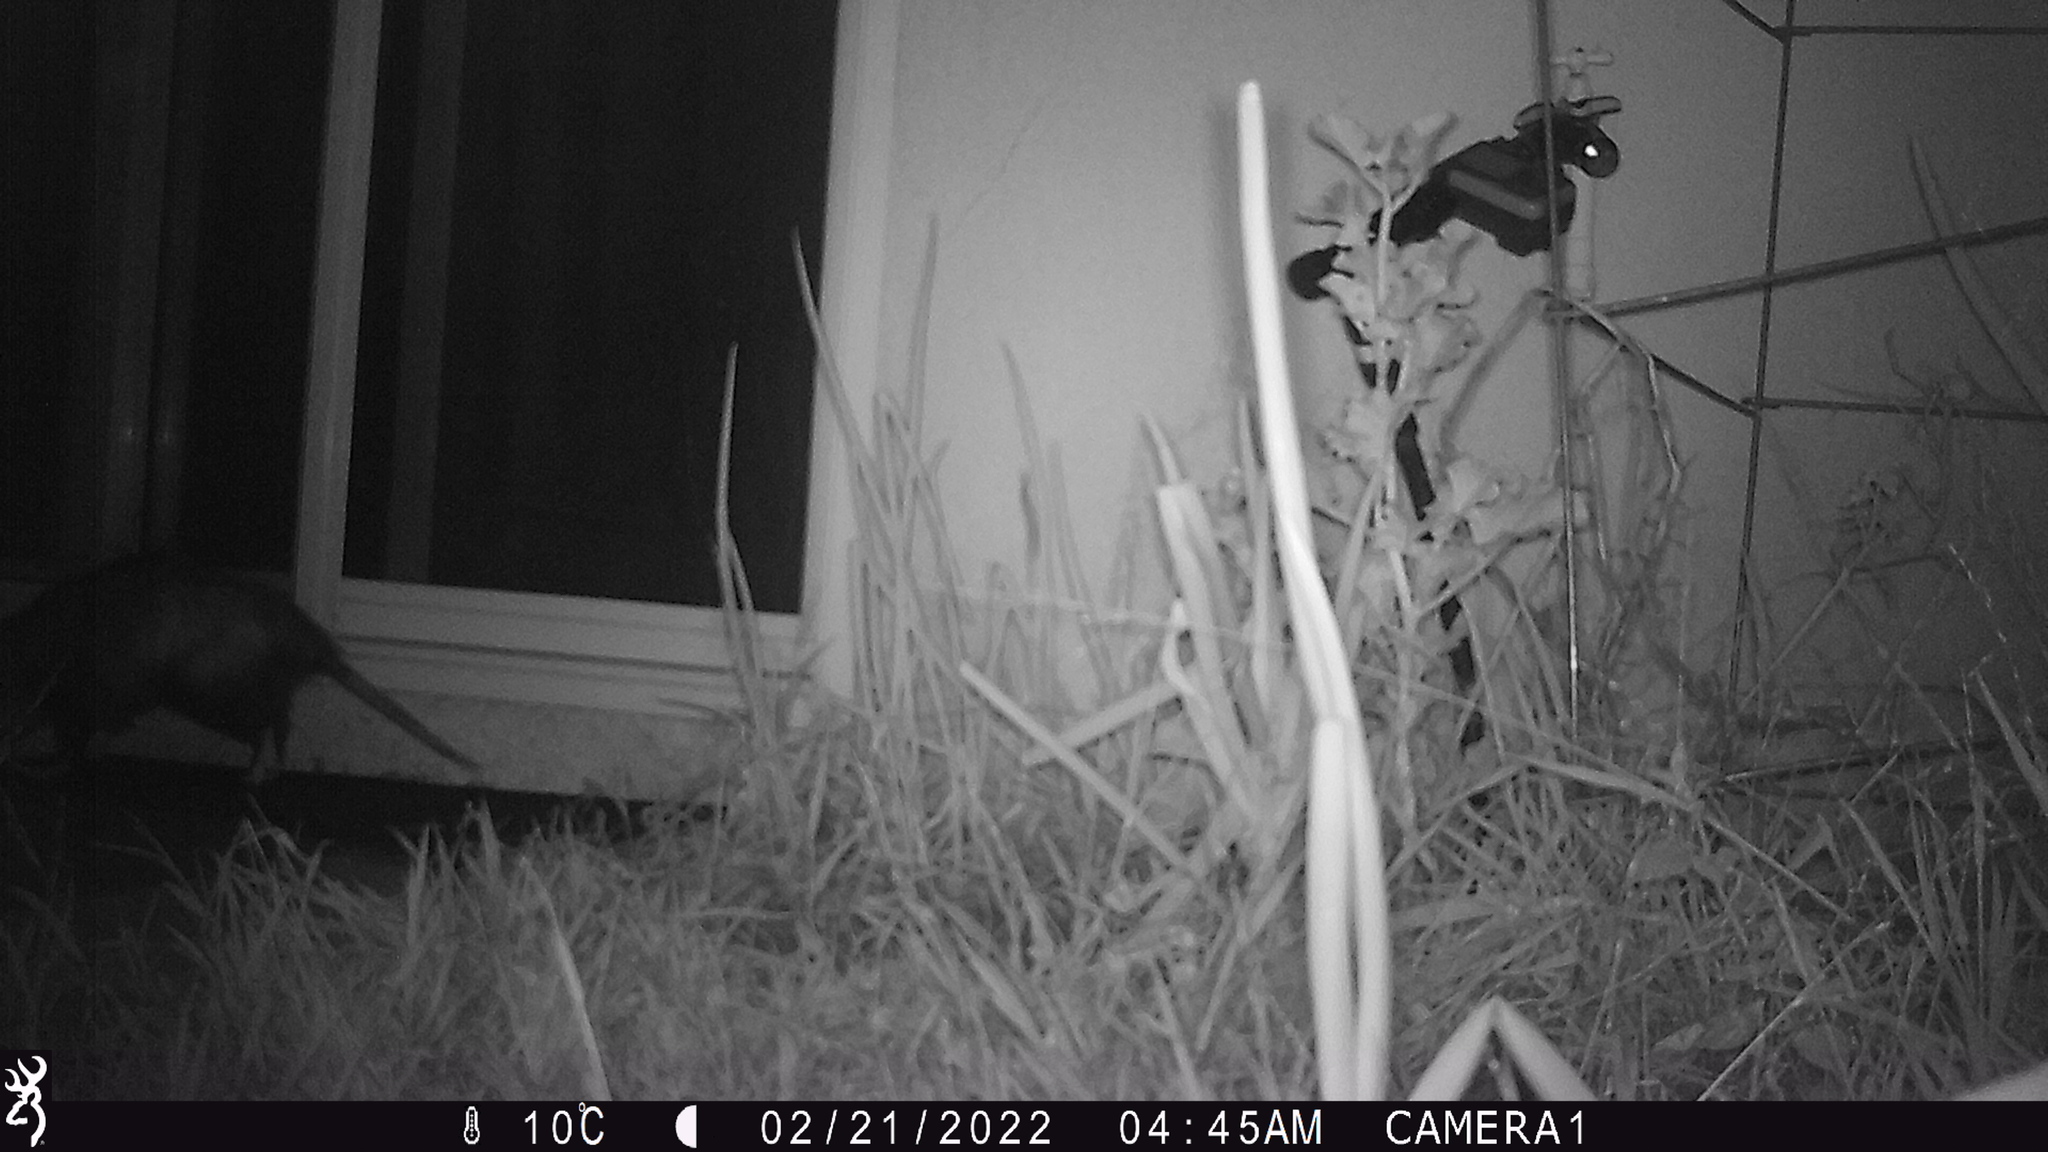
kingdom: Animalia
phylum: Chordata
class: Mammalia
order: Didelphimorphia
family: Didelphidae
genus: Didelphis
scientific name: Didelphis virginiana
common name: Virginia opossum
